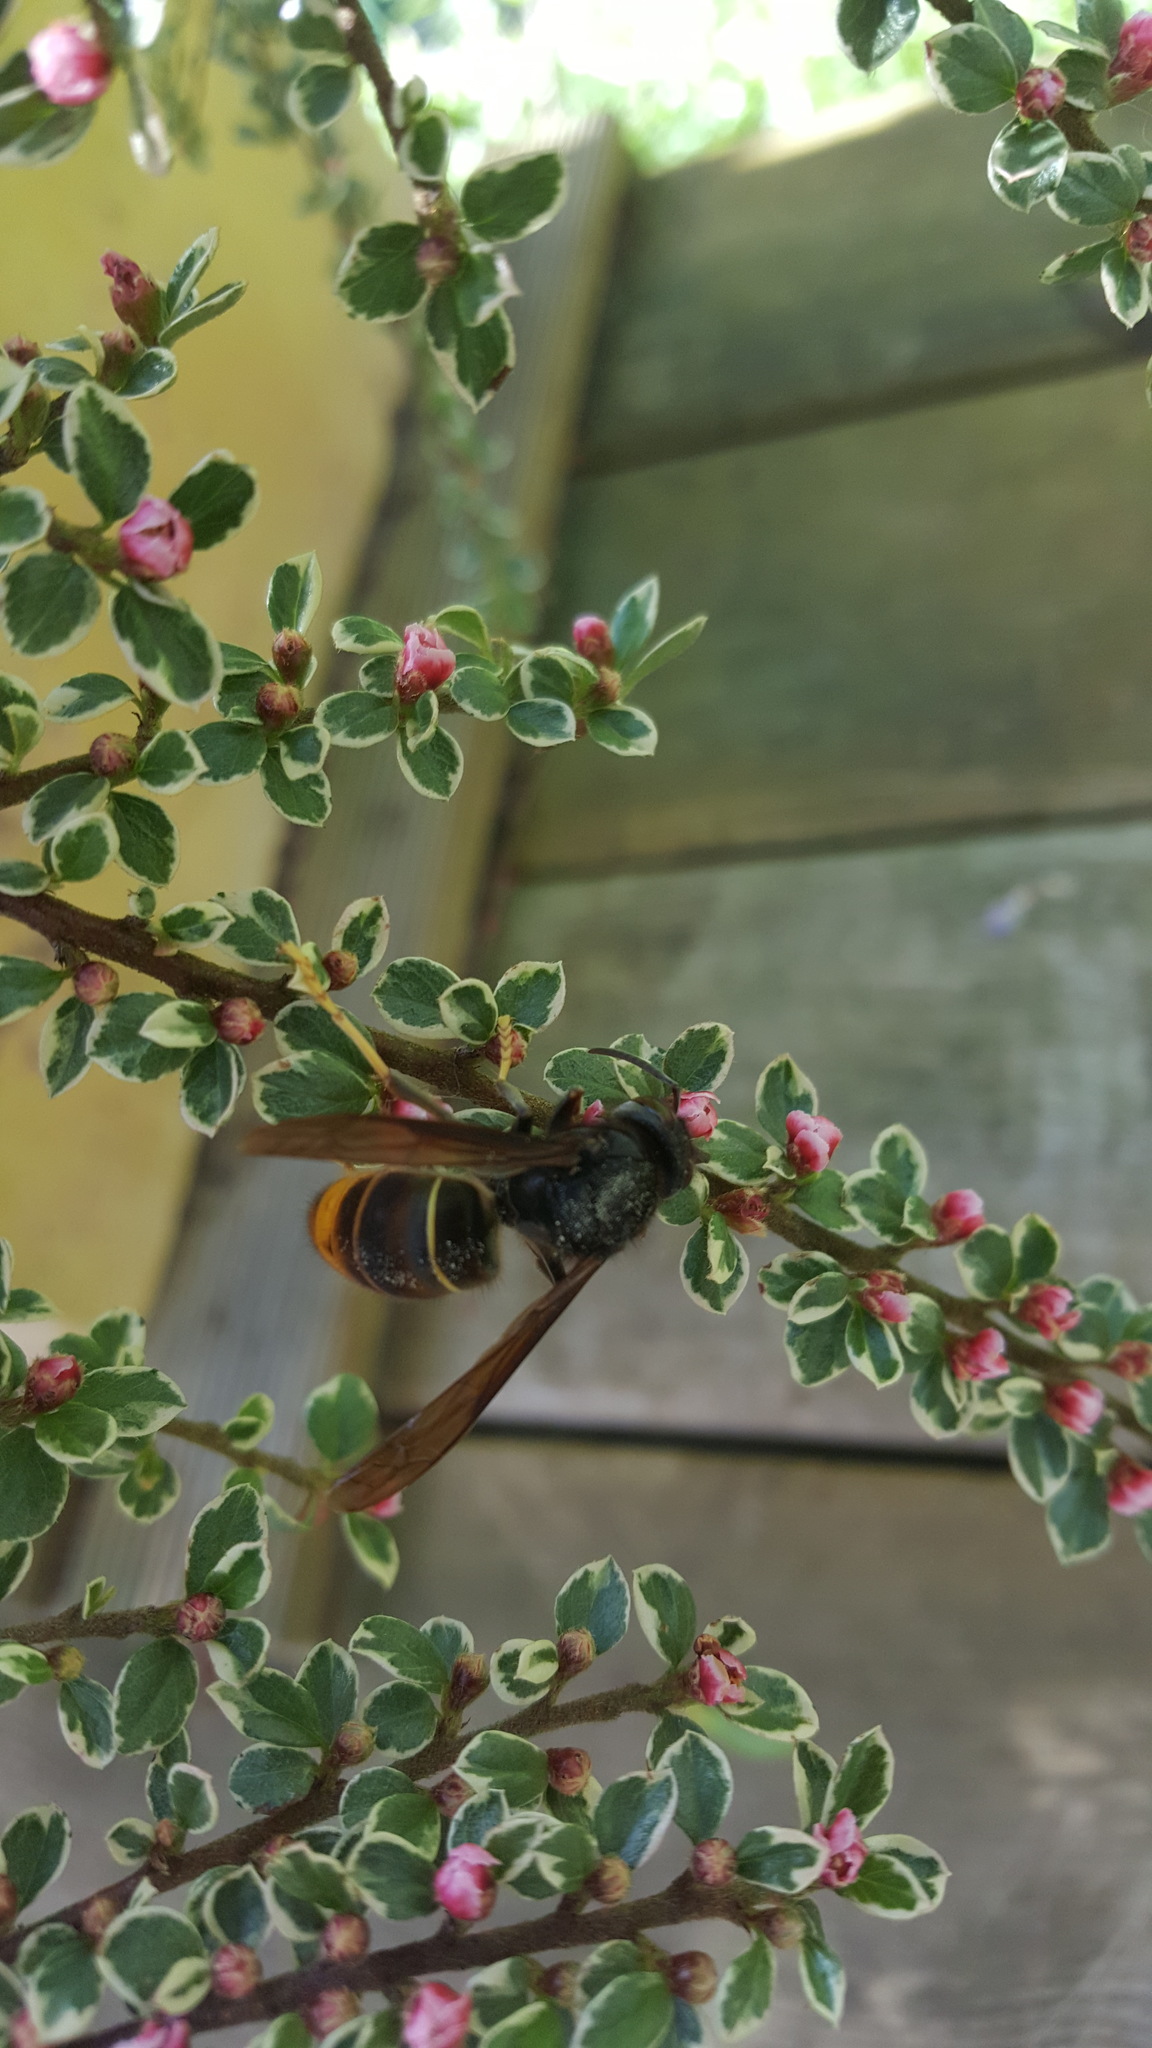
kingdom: Animalia
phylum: Arthropoda
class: Insecta
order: Hymenoptera
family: Vespidae
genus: Vespa
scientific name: Vespa velutina
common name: Asian hornet
